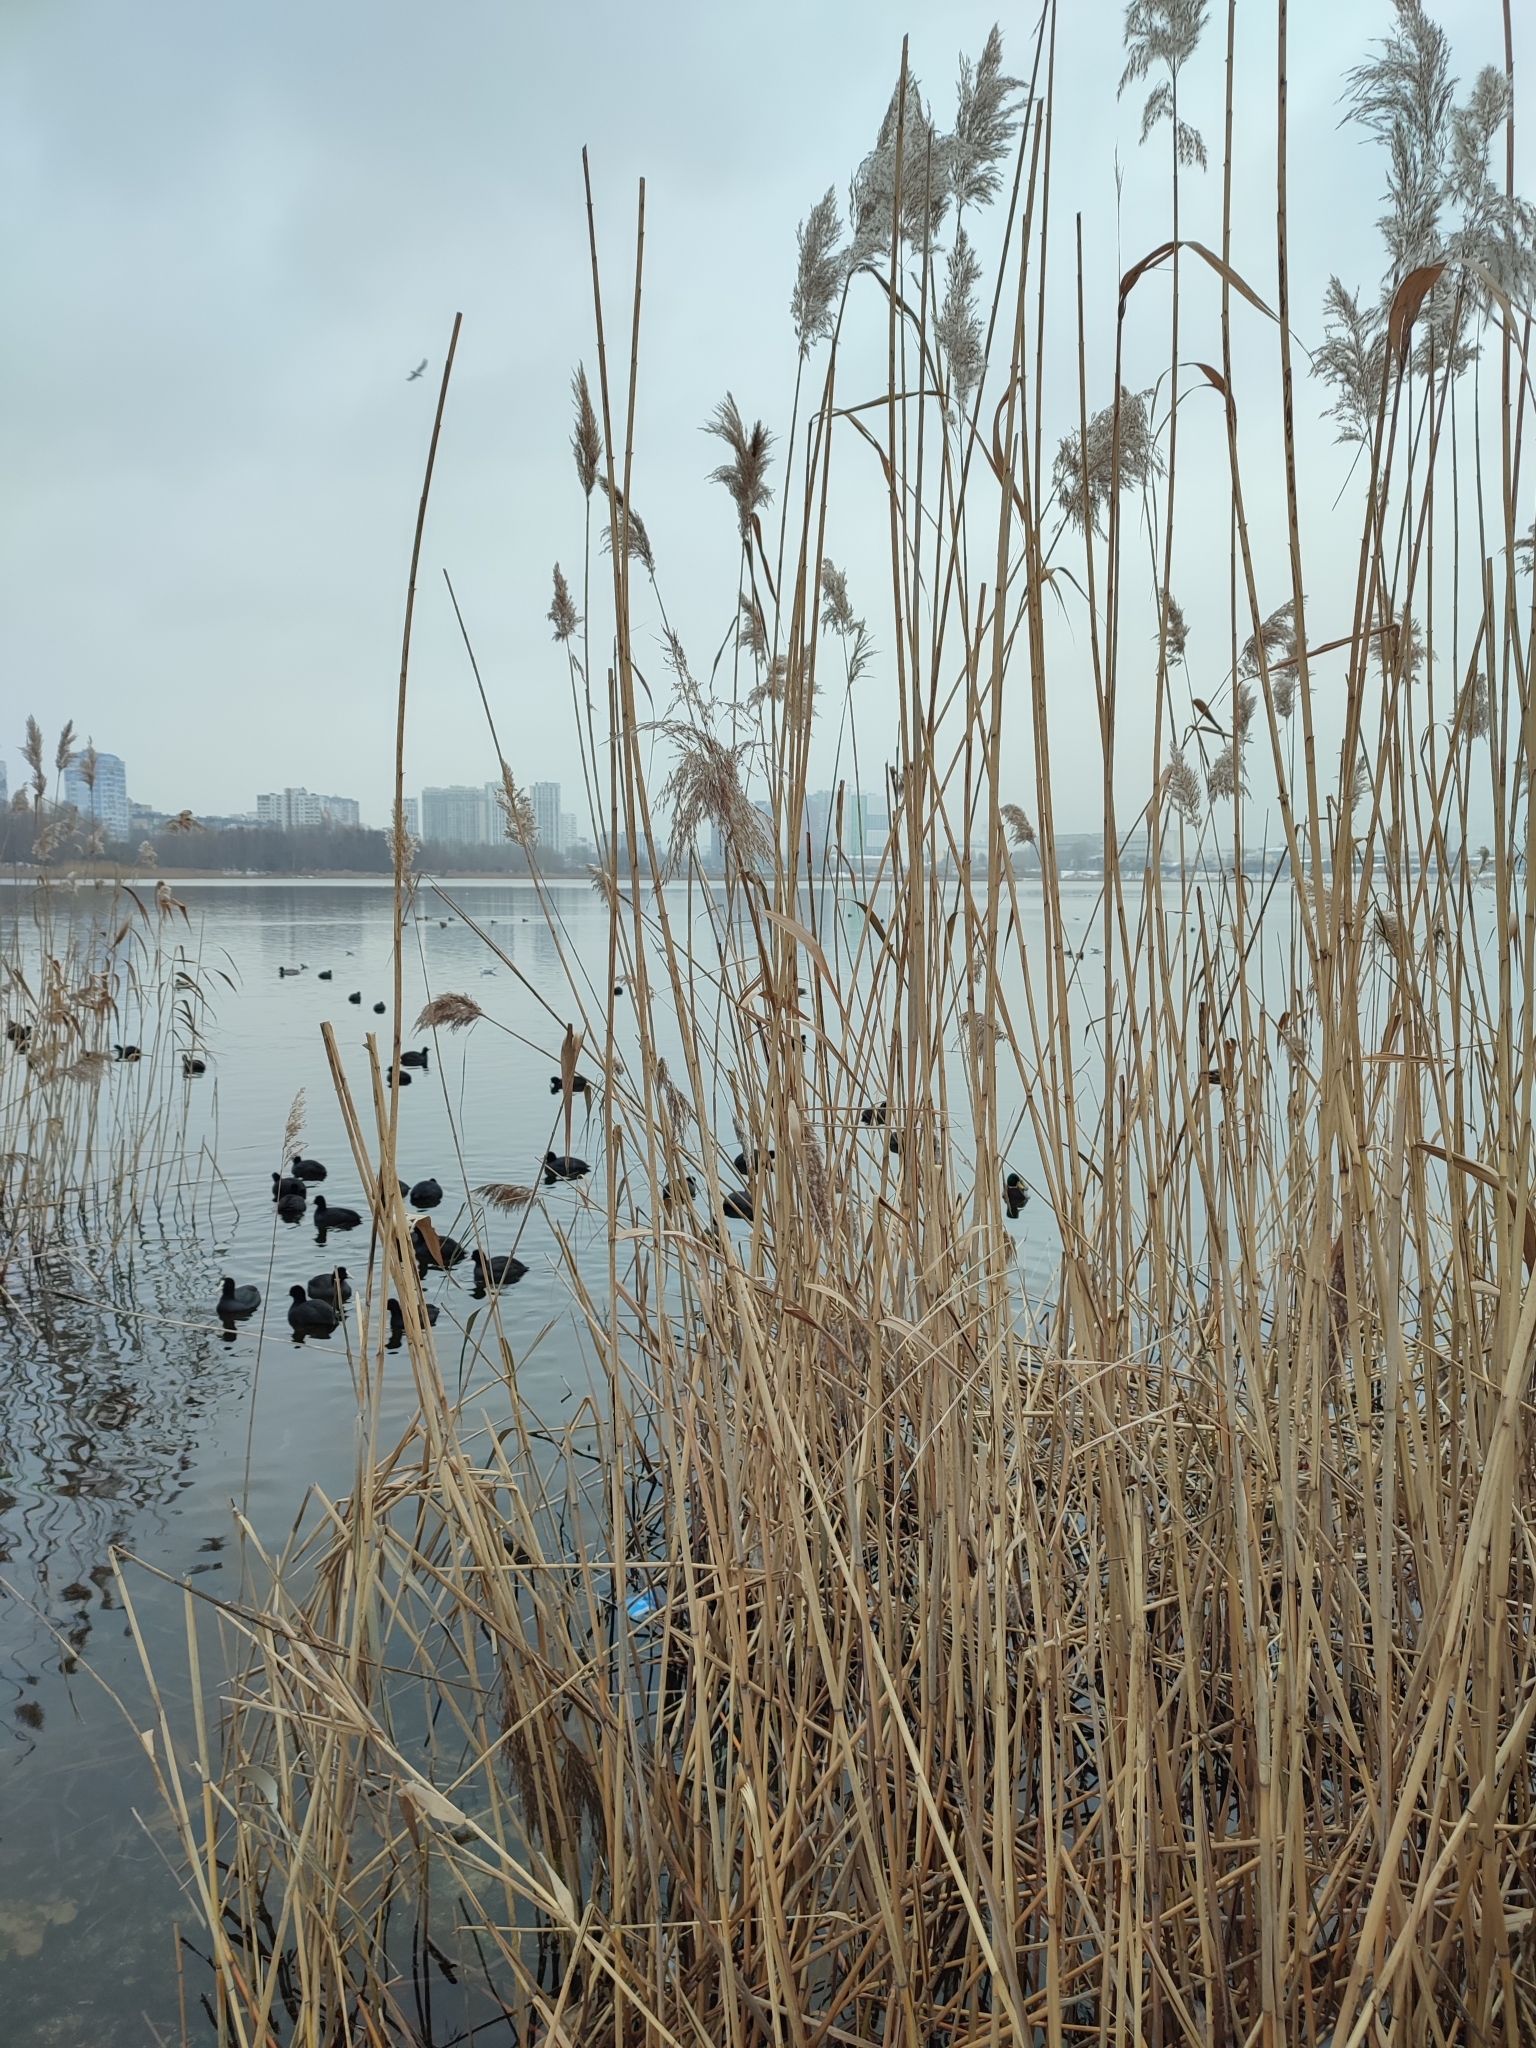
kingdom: Plantae
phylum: Tracheophyta
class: Liliopsida
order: Poales
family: Poaceae
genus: Phragmites
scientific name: Phragmites australis
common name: Common reed
